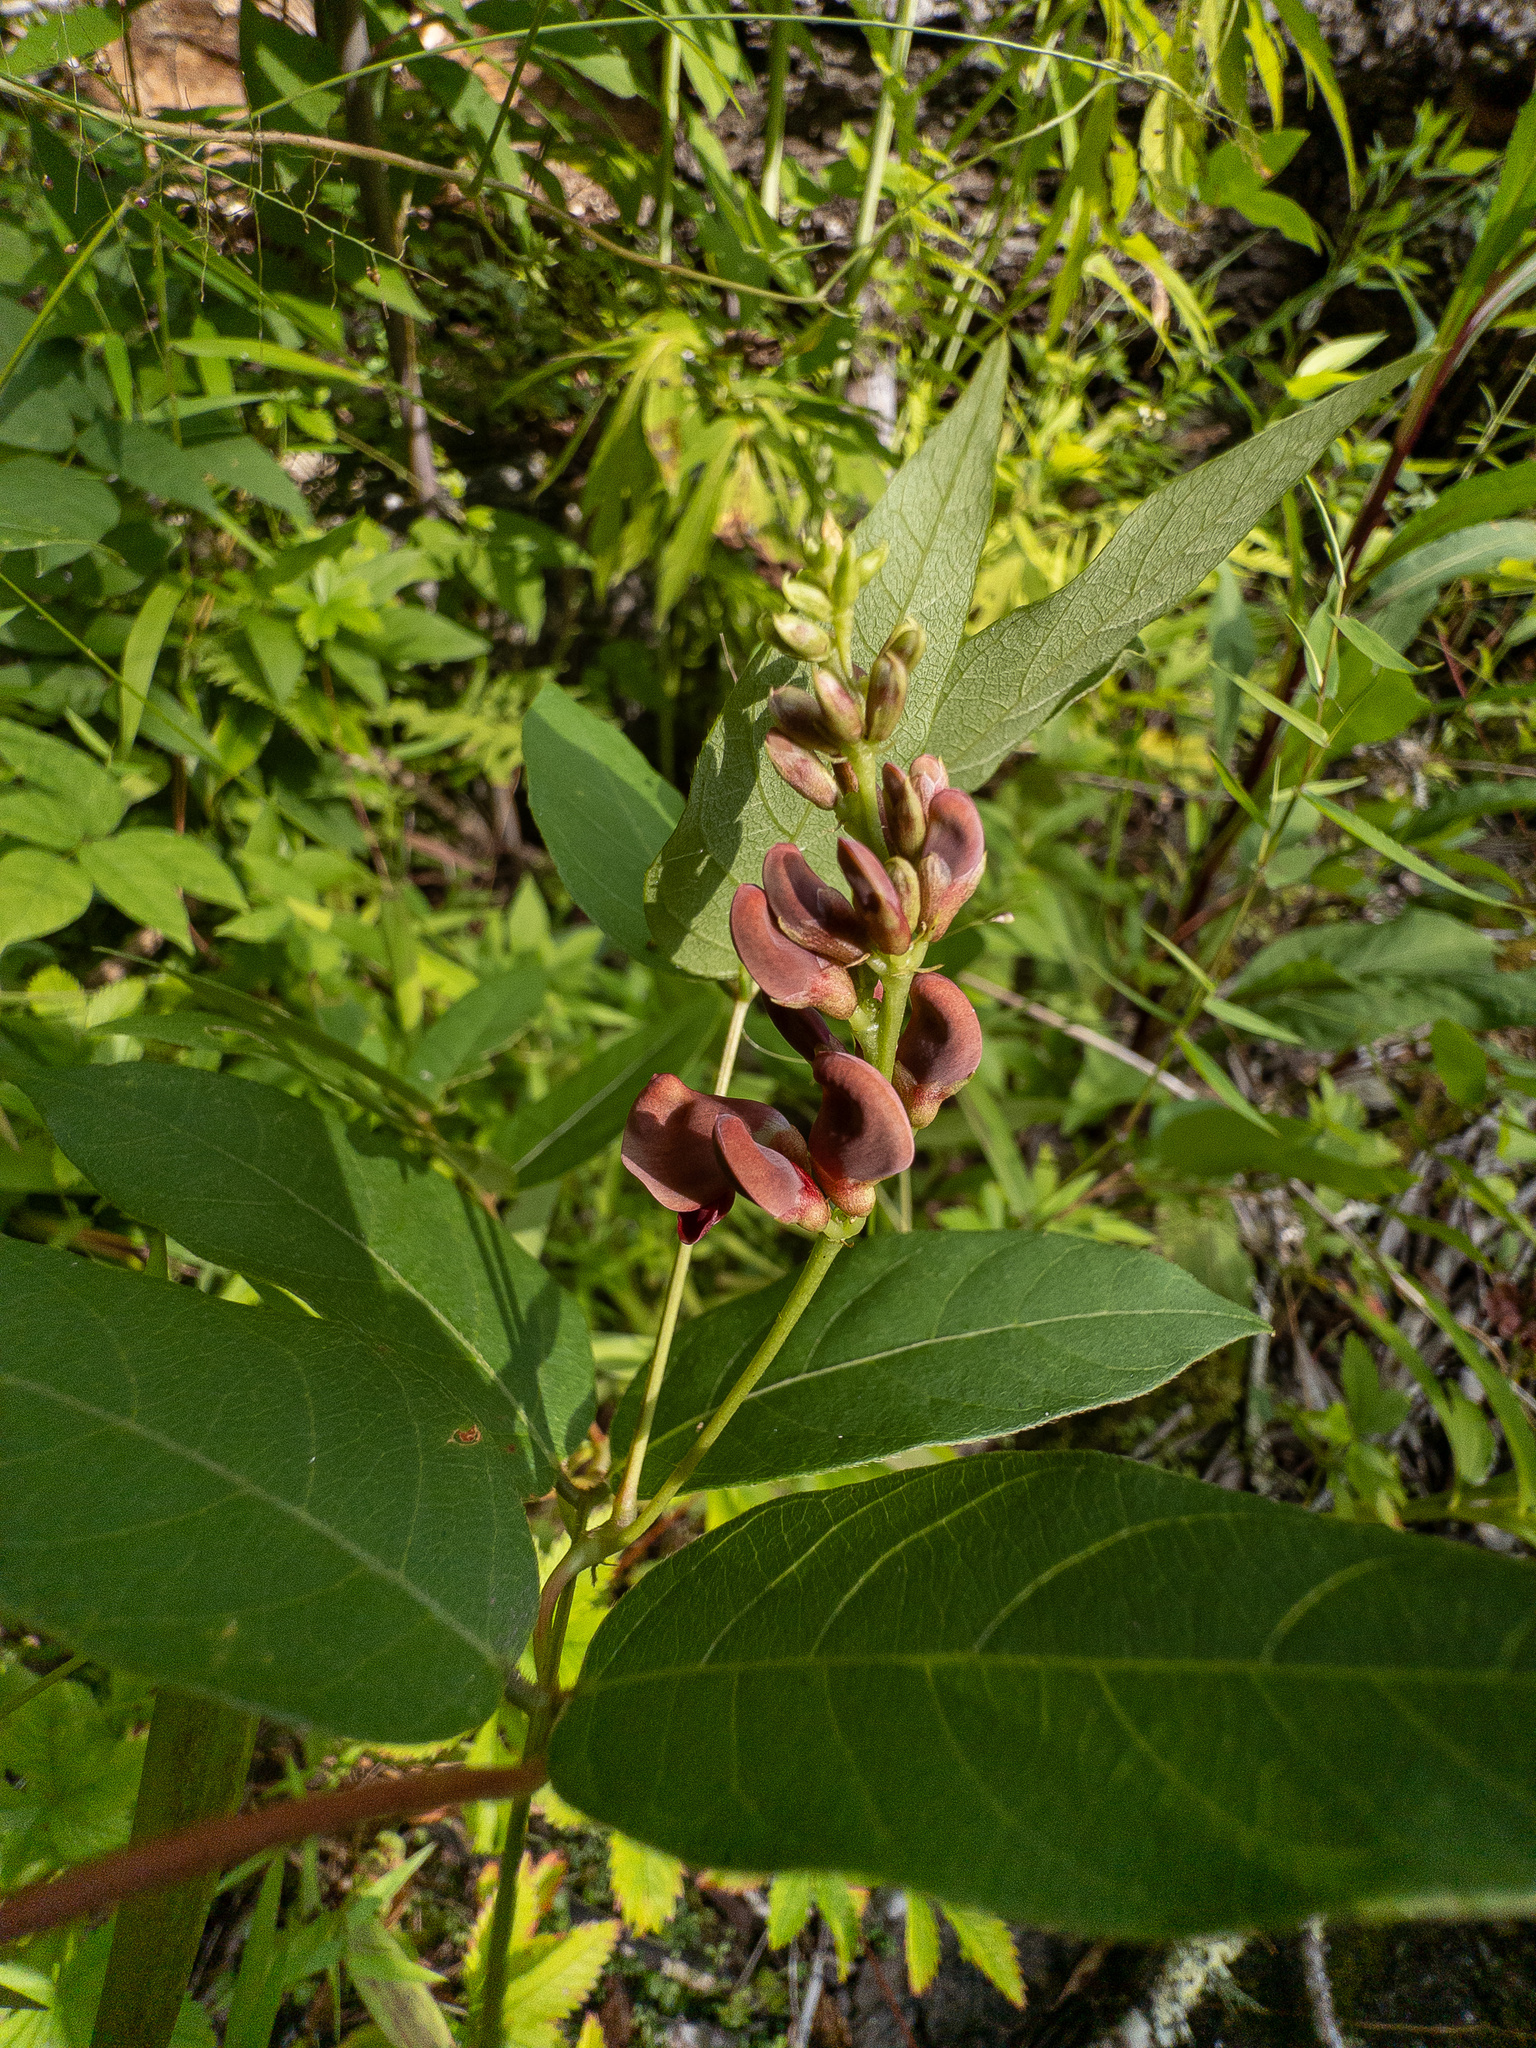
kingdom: Plantae
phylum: Tracheophyta
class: Magnoliopsida
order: Fabales
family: Fabaceae
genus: Apios
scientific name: Apios americana
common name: American potato-bean
